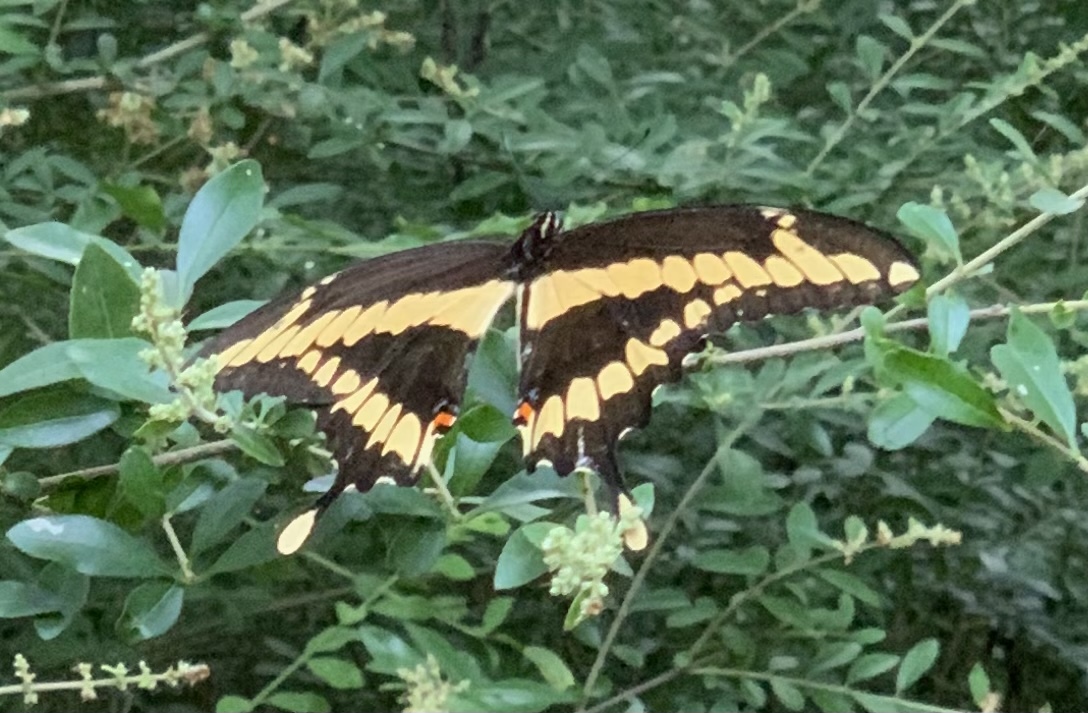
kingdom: Animalia
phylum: Arthropoda
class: Insecta
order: Lepidoptera
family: Papilionidae
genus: Papilio
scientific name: Papilio cresphontes
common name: Giant swallowtail
